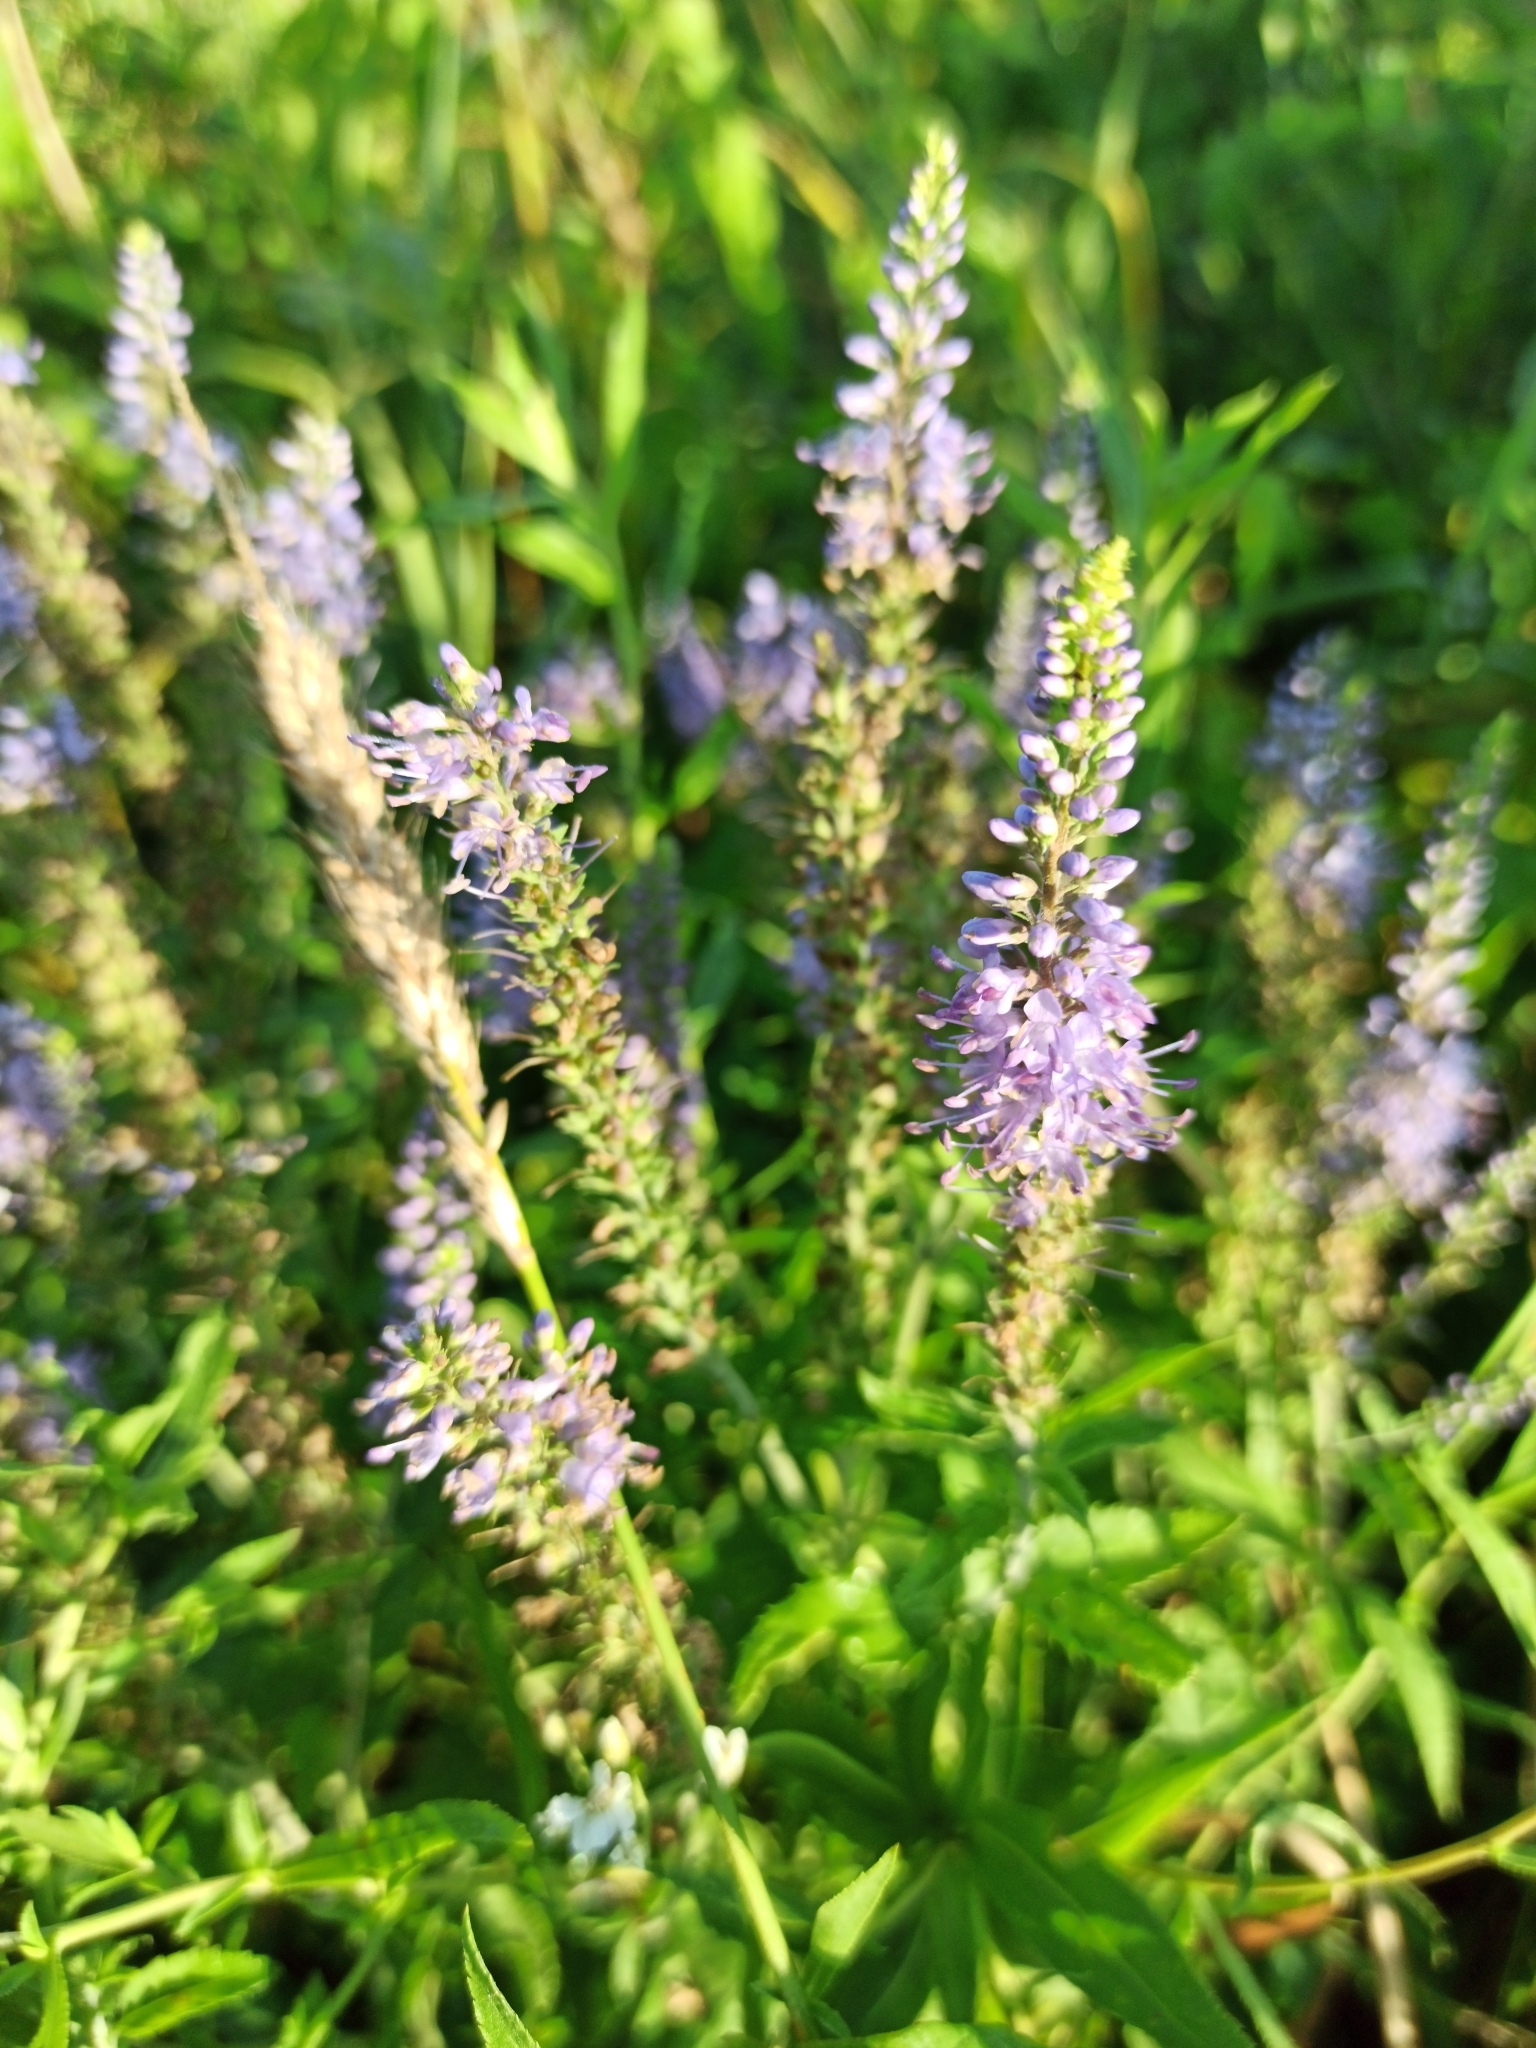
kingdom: Plantae
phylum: Tracheophyta
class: Magnoliopsida
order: Lamiales
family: Plantaginaceae
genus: Veronica
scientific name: Veronica longifolia
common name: Garden speedwell
